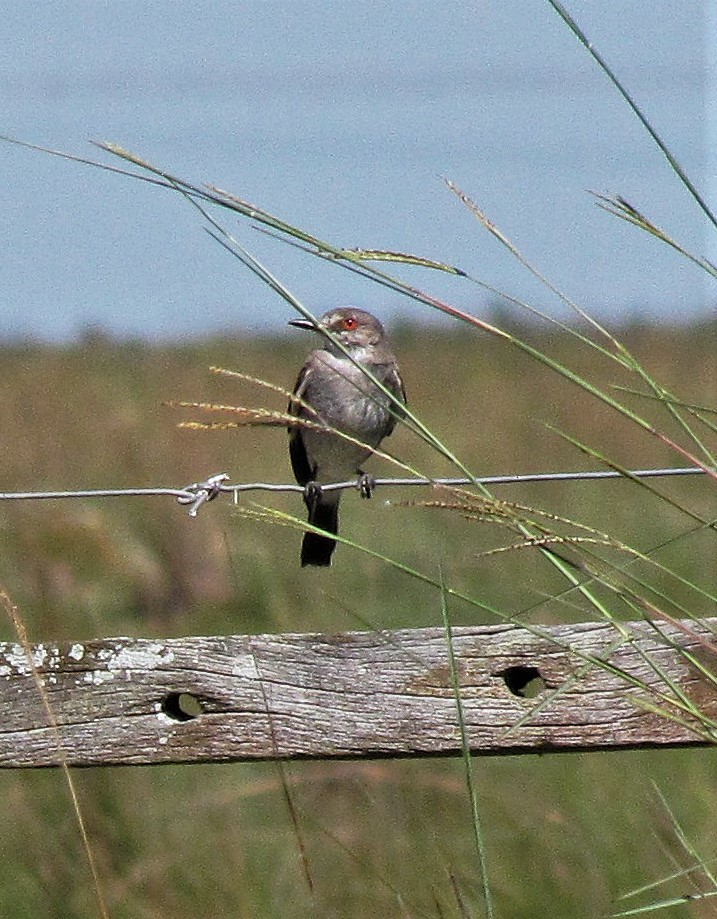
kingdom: Animalia
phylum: Chordata
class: Aves
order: Passeriformes
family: Tyrannidae
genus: Xolmis
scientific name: Xolmis cinereus
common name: Grey monjita
